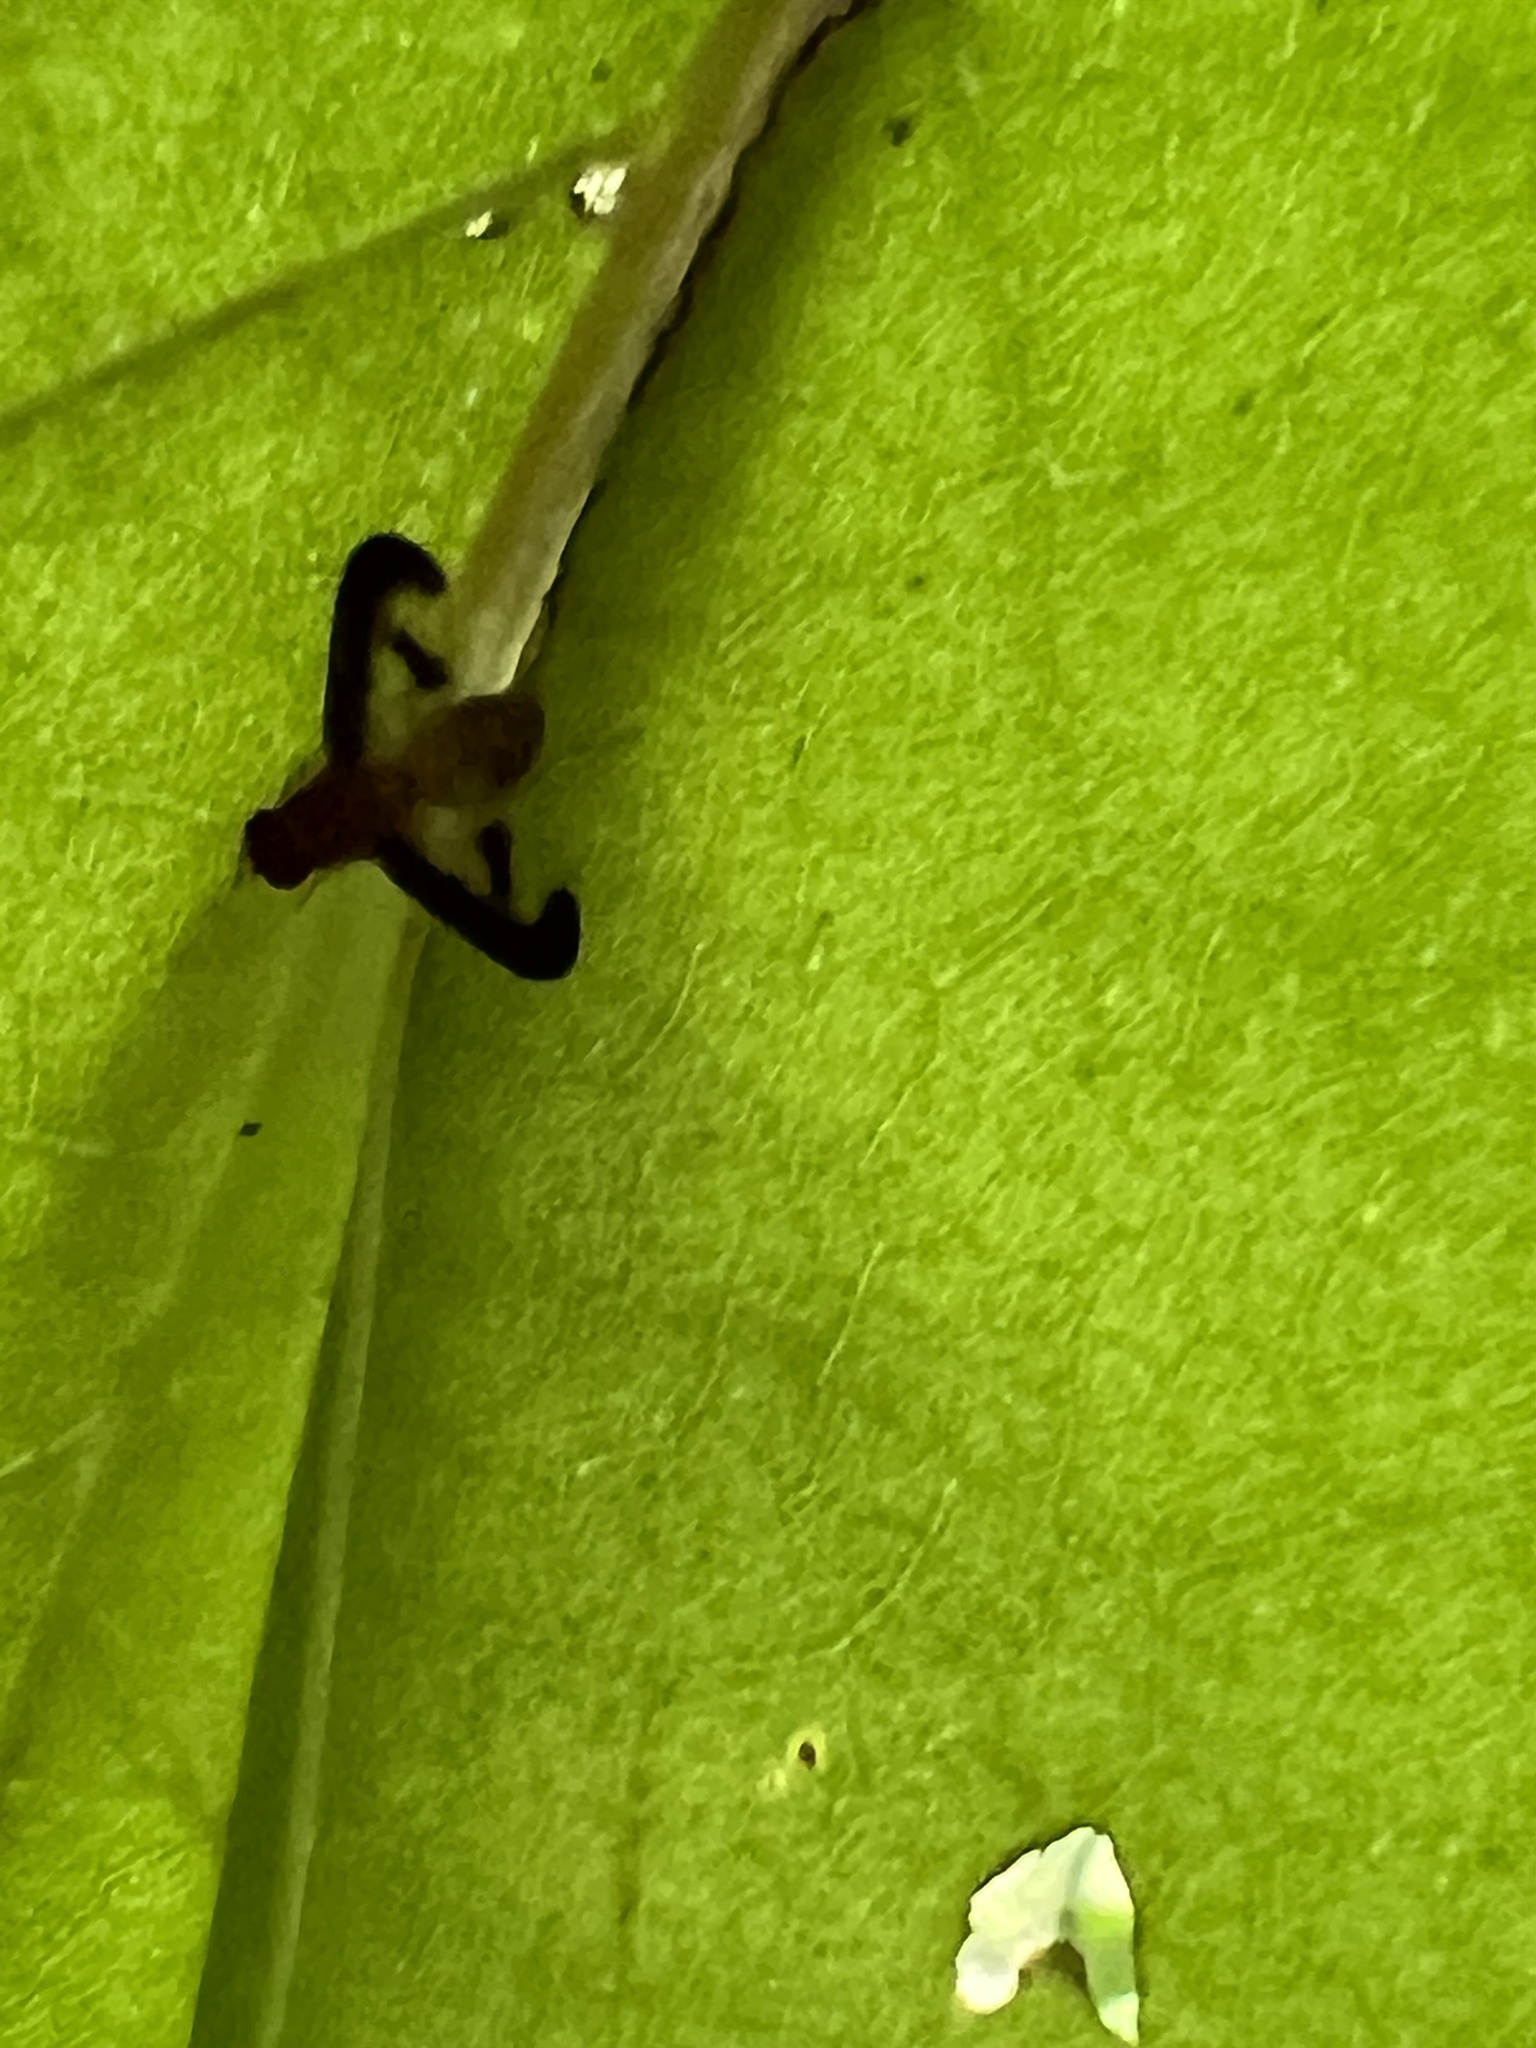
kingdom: Animalia
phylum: Arthropoda
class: Insecta
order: Diptera
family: Pallopteridae
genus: Toxonevra
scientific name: Toxonevra superba
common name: Antlered flutter fly
